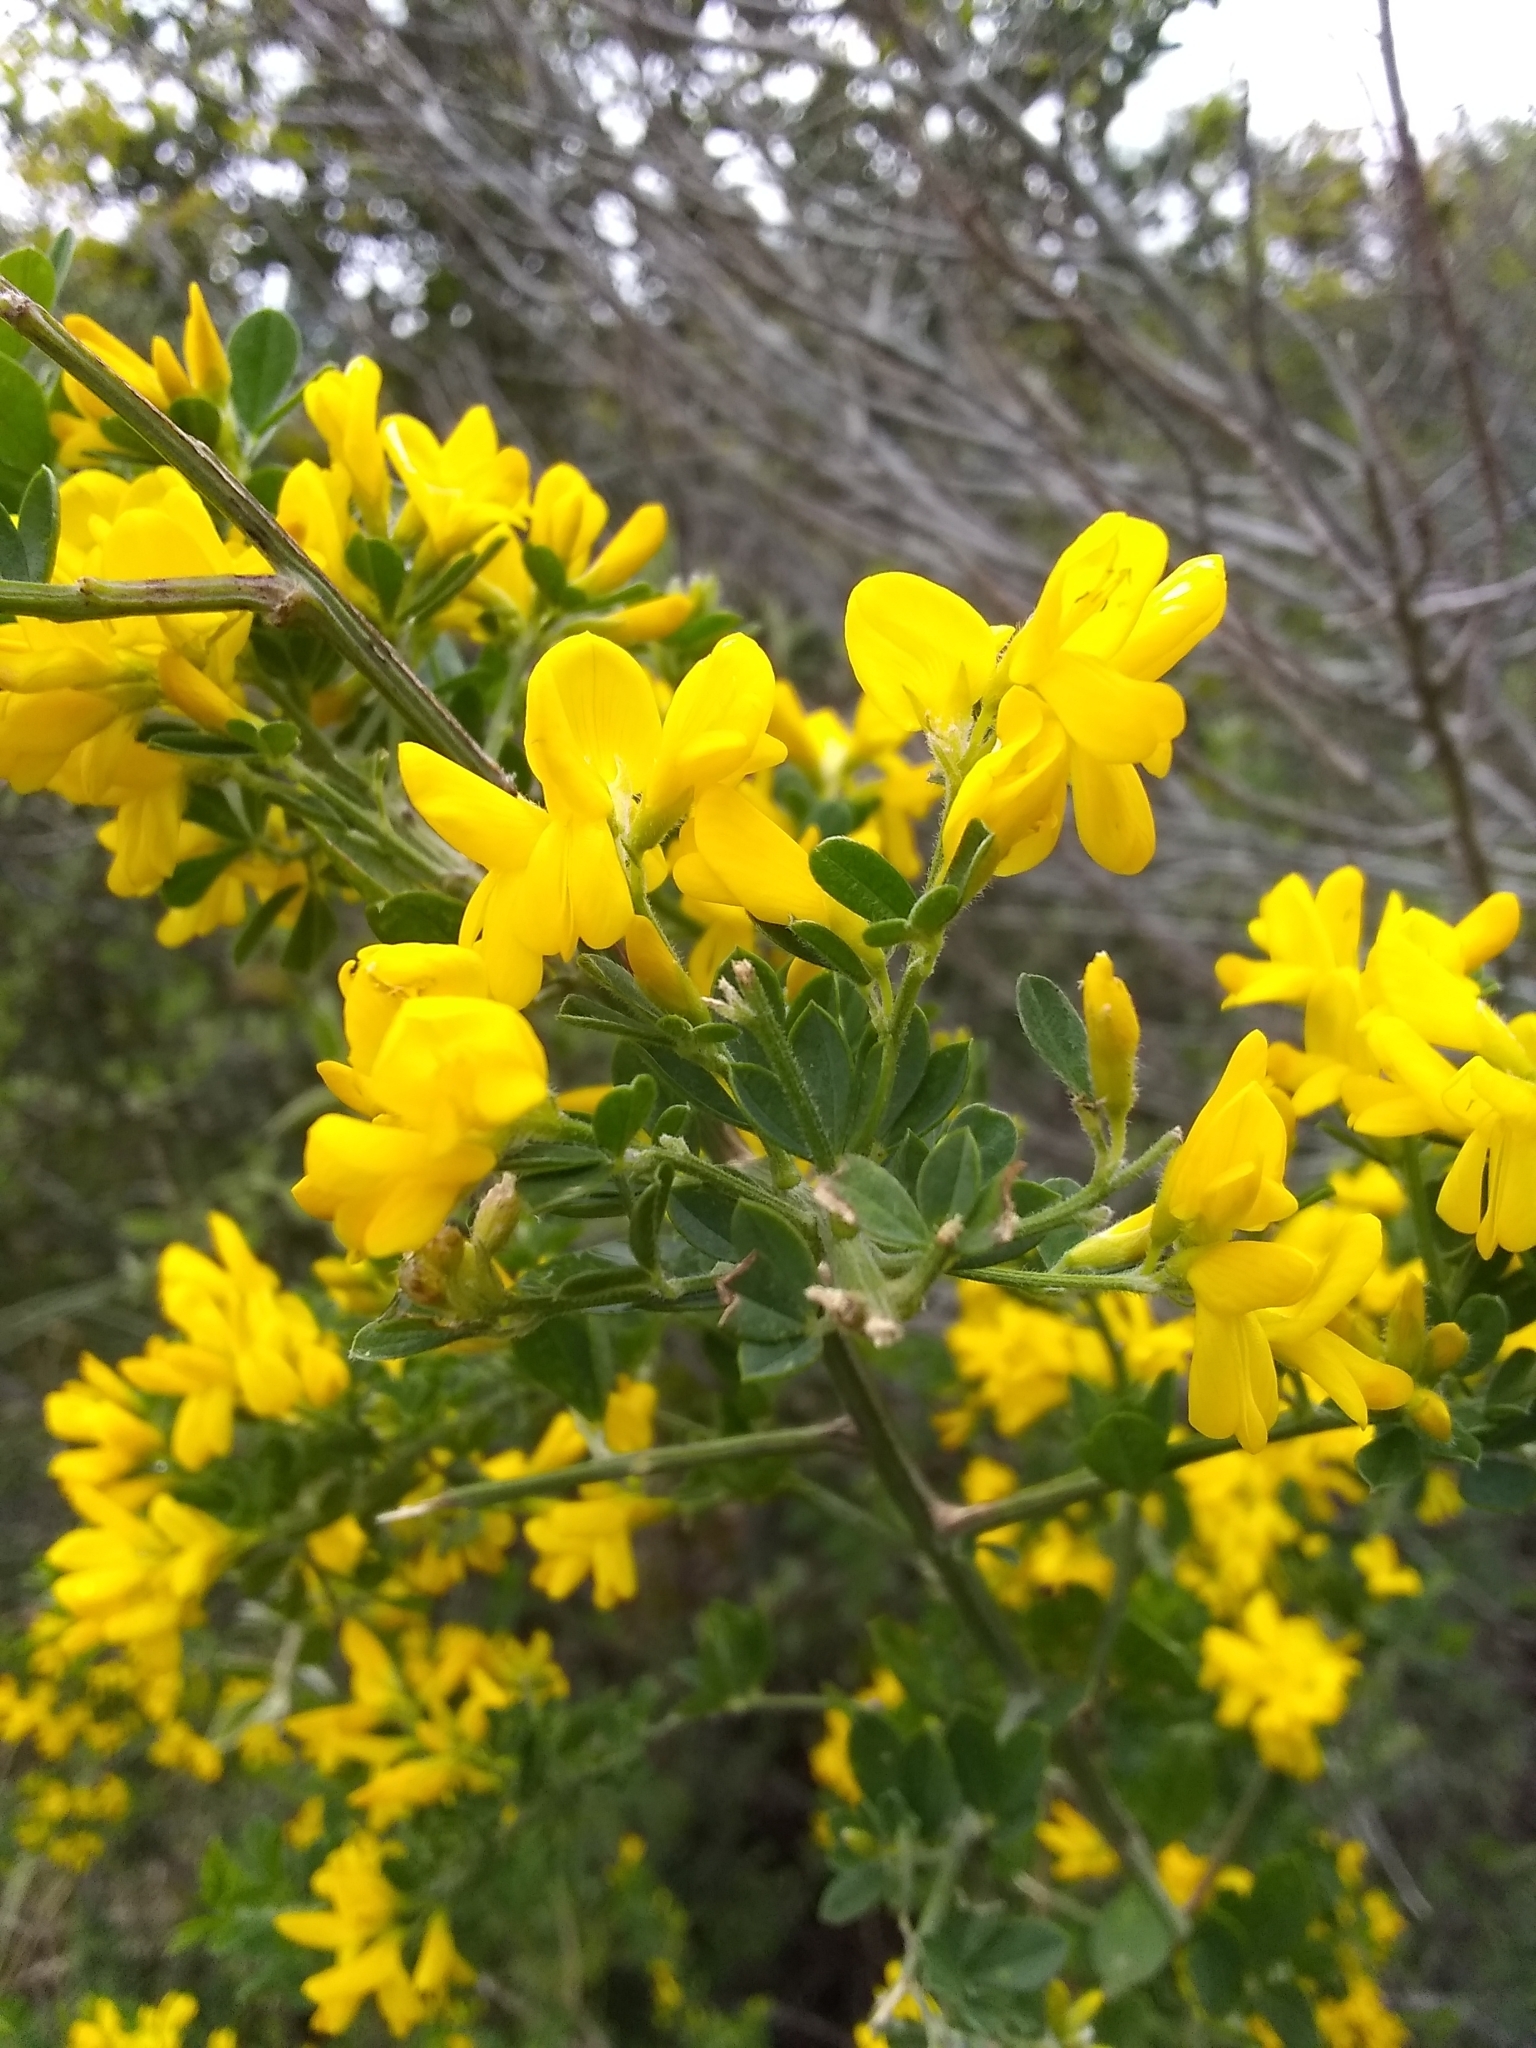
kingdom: Plantae
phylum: Tracheophyta
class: Magnoliopsida
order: Fabales
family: Fabaceae
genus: Genista
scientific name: Genista monspessulana
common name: Montpellier broom
